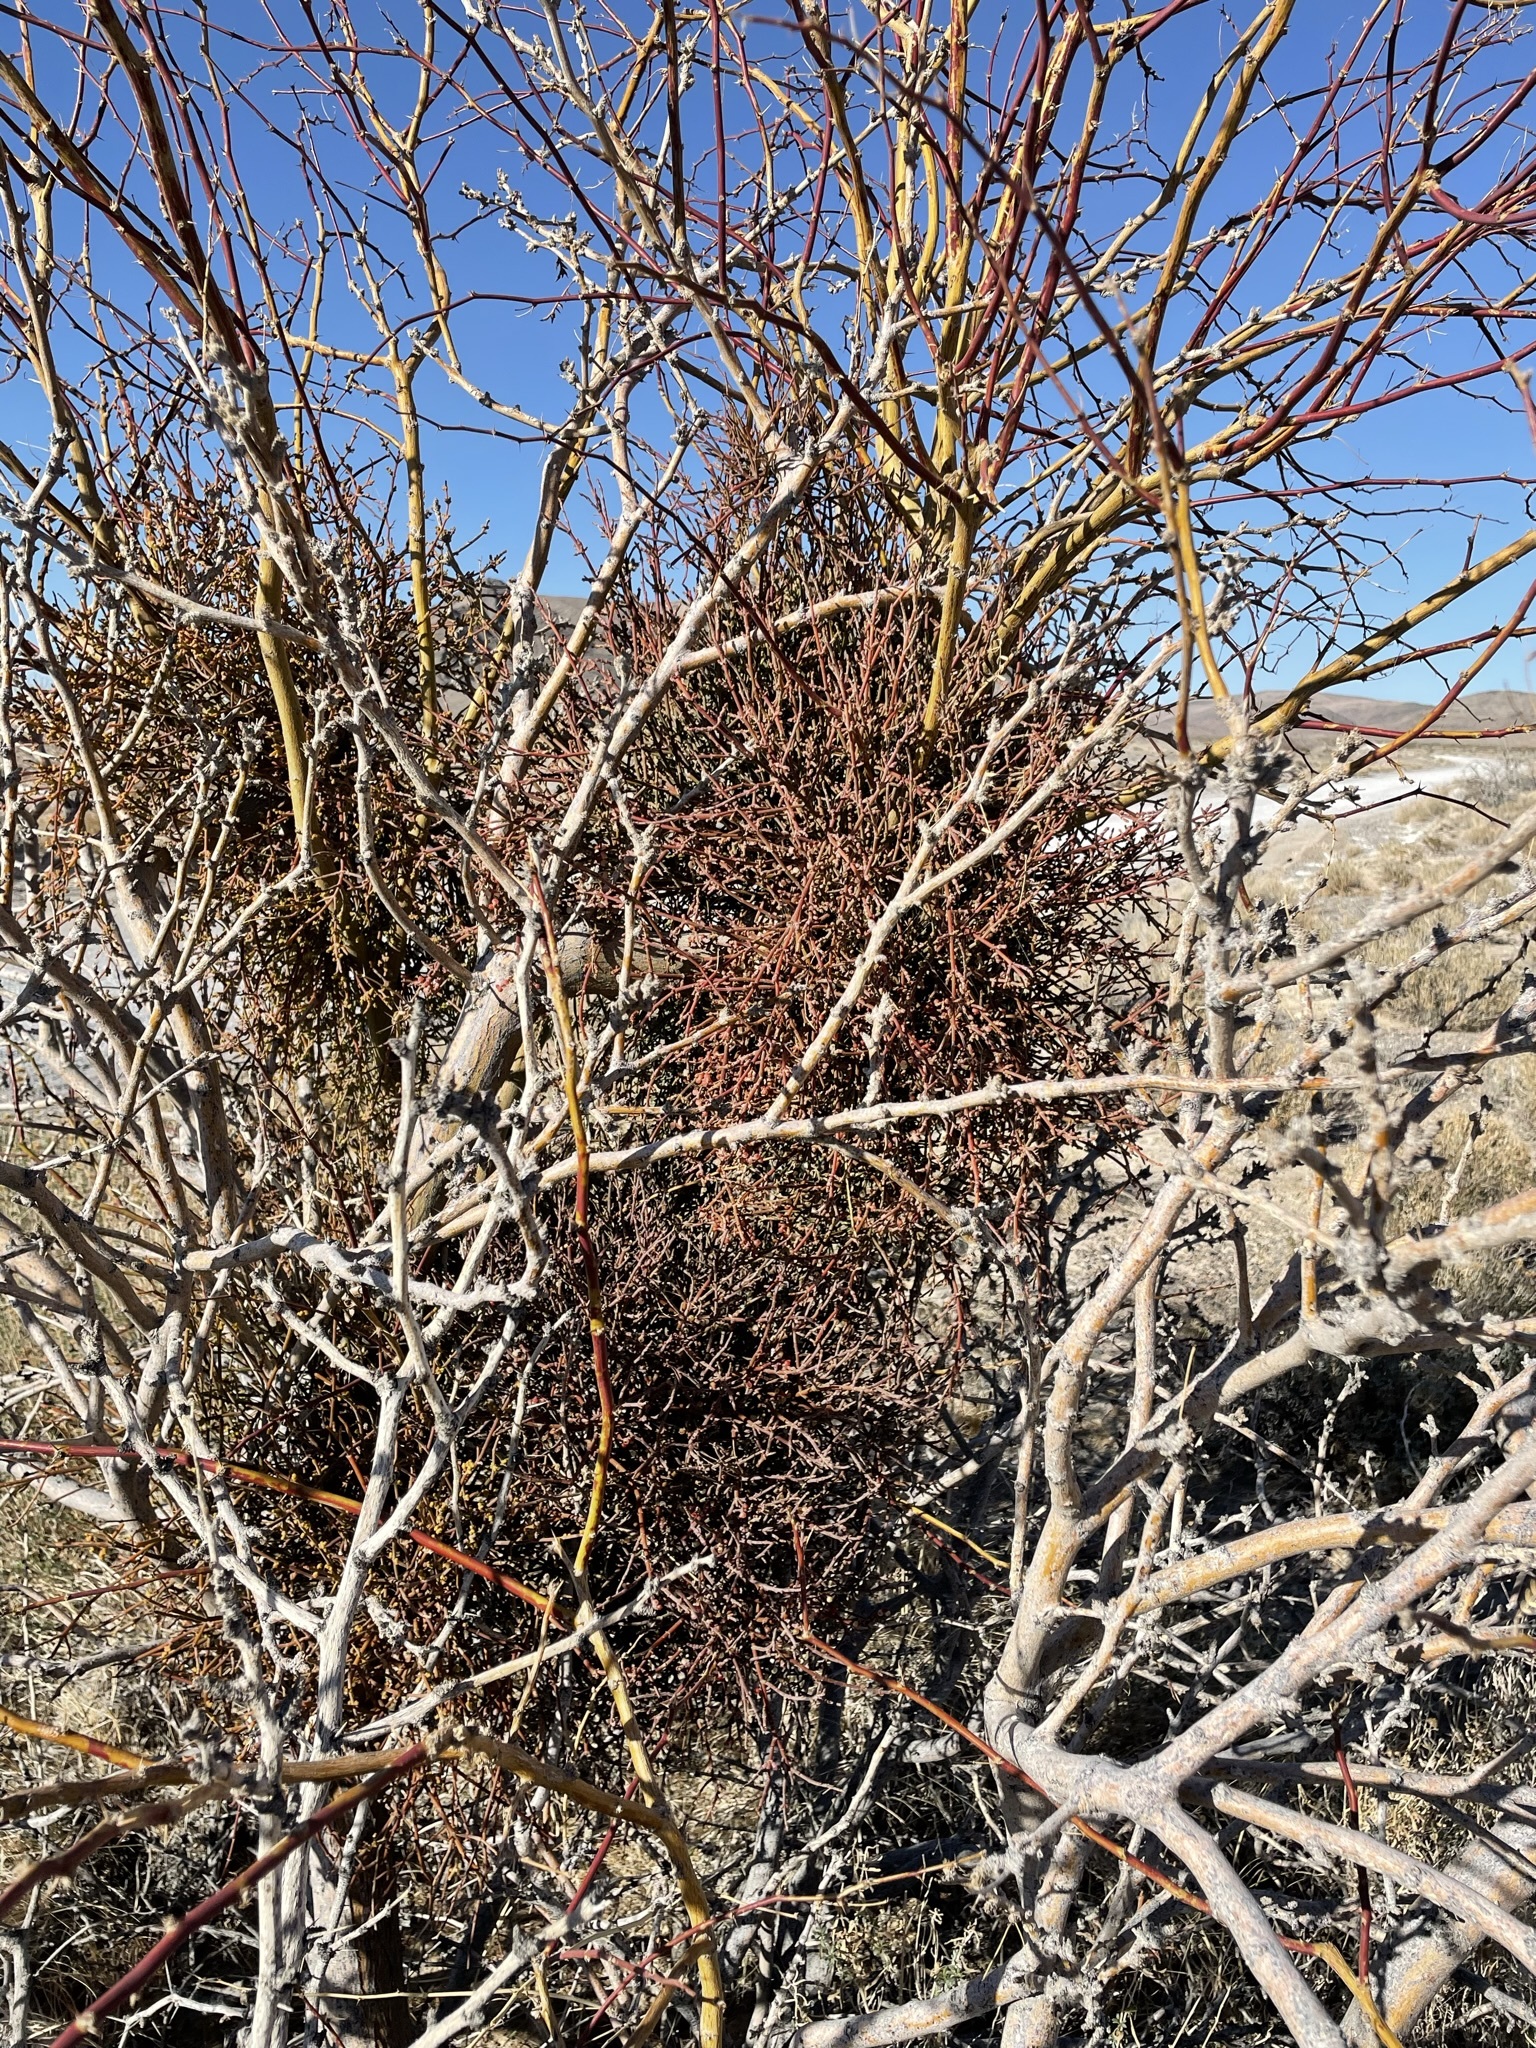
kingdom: Plantae
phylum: Tracheophyta
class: Magnoliopsida
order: Santalales
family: Viscaceae
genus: Phoradendron
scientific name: Phoradendron californicum
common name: Acacia mistletoe
